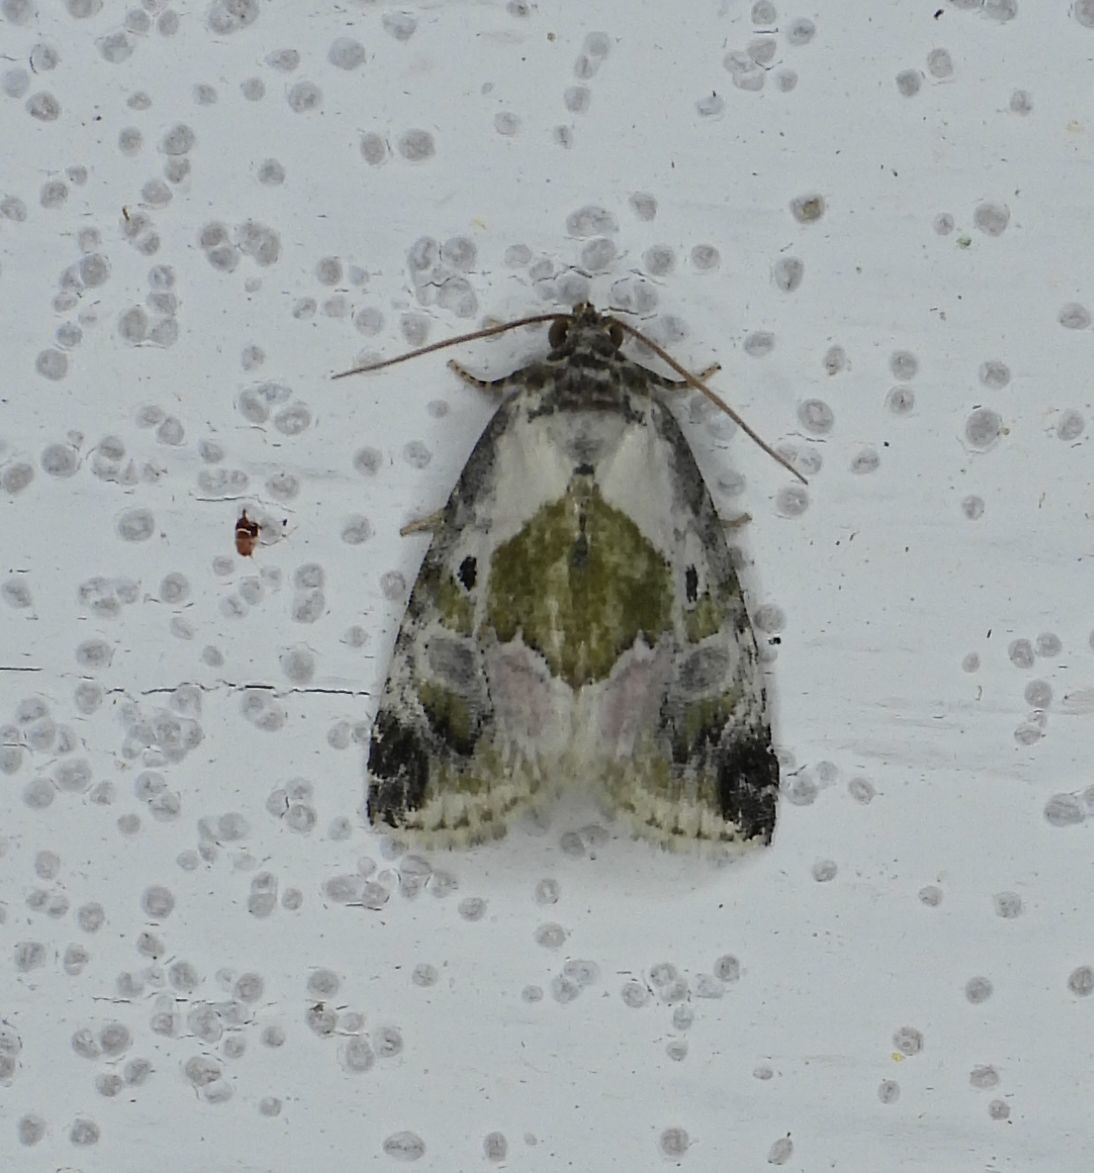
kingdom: Animalia
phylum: Arthropoda
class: Insecta
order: Lepidoptera
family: Noctuidae
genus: Maliattha
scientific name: Maliattha synochitis
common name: Black-dotted glyph
